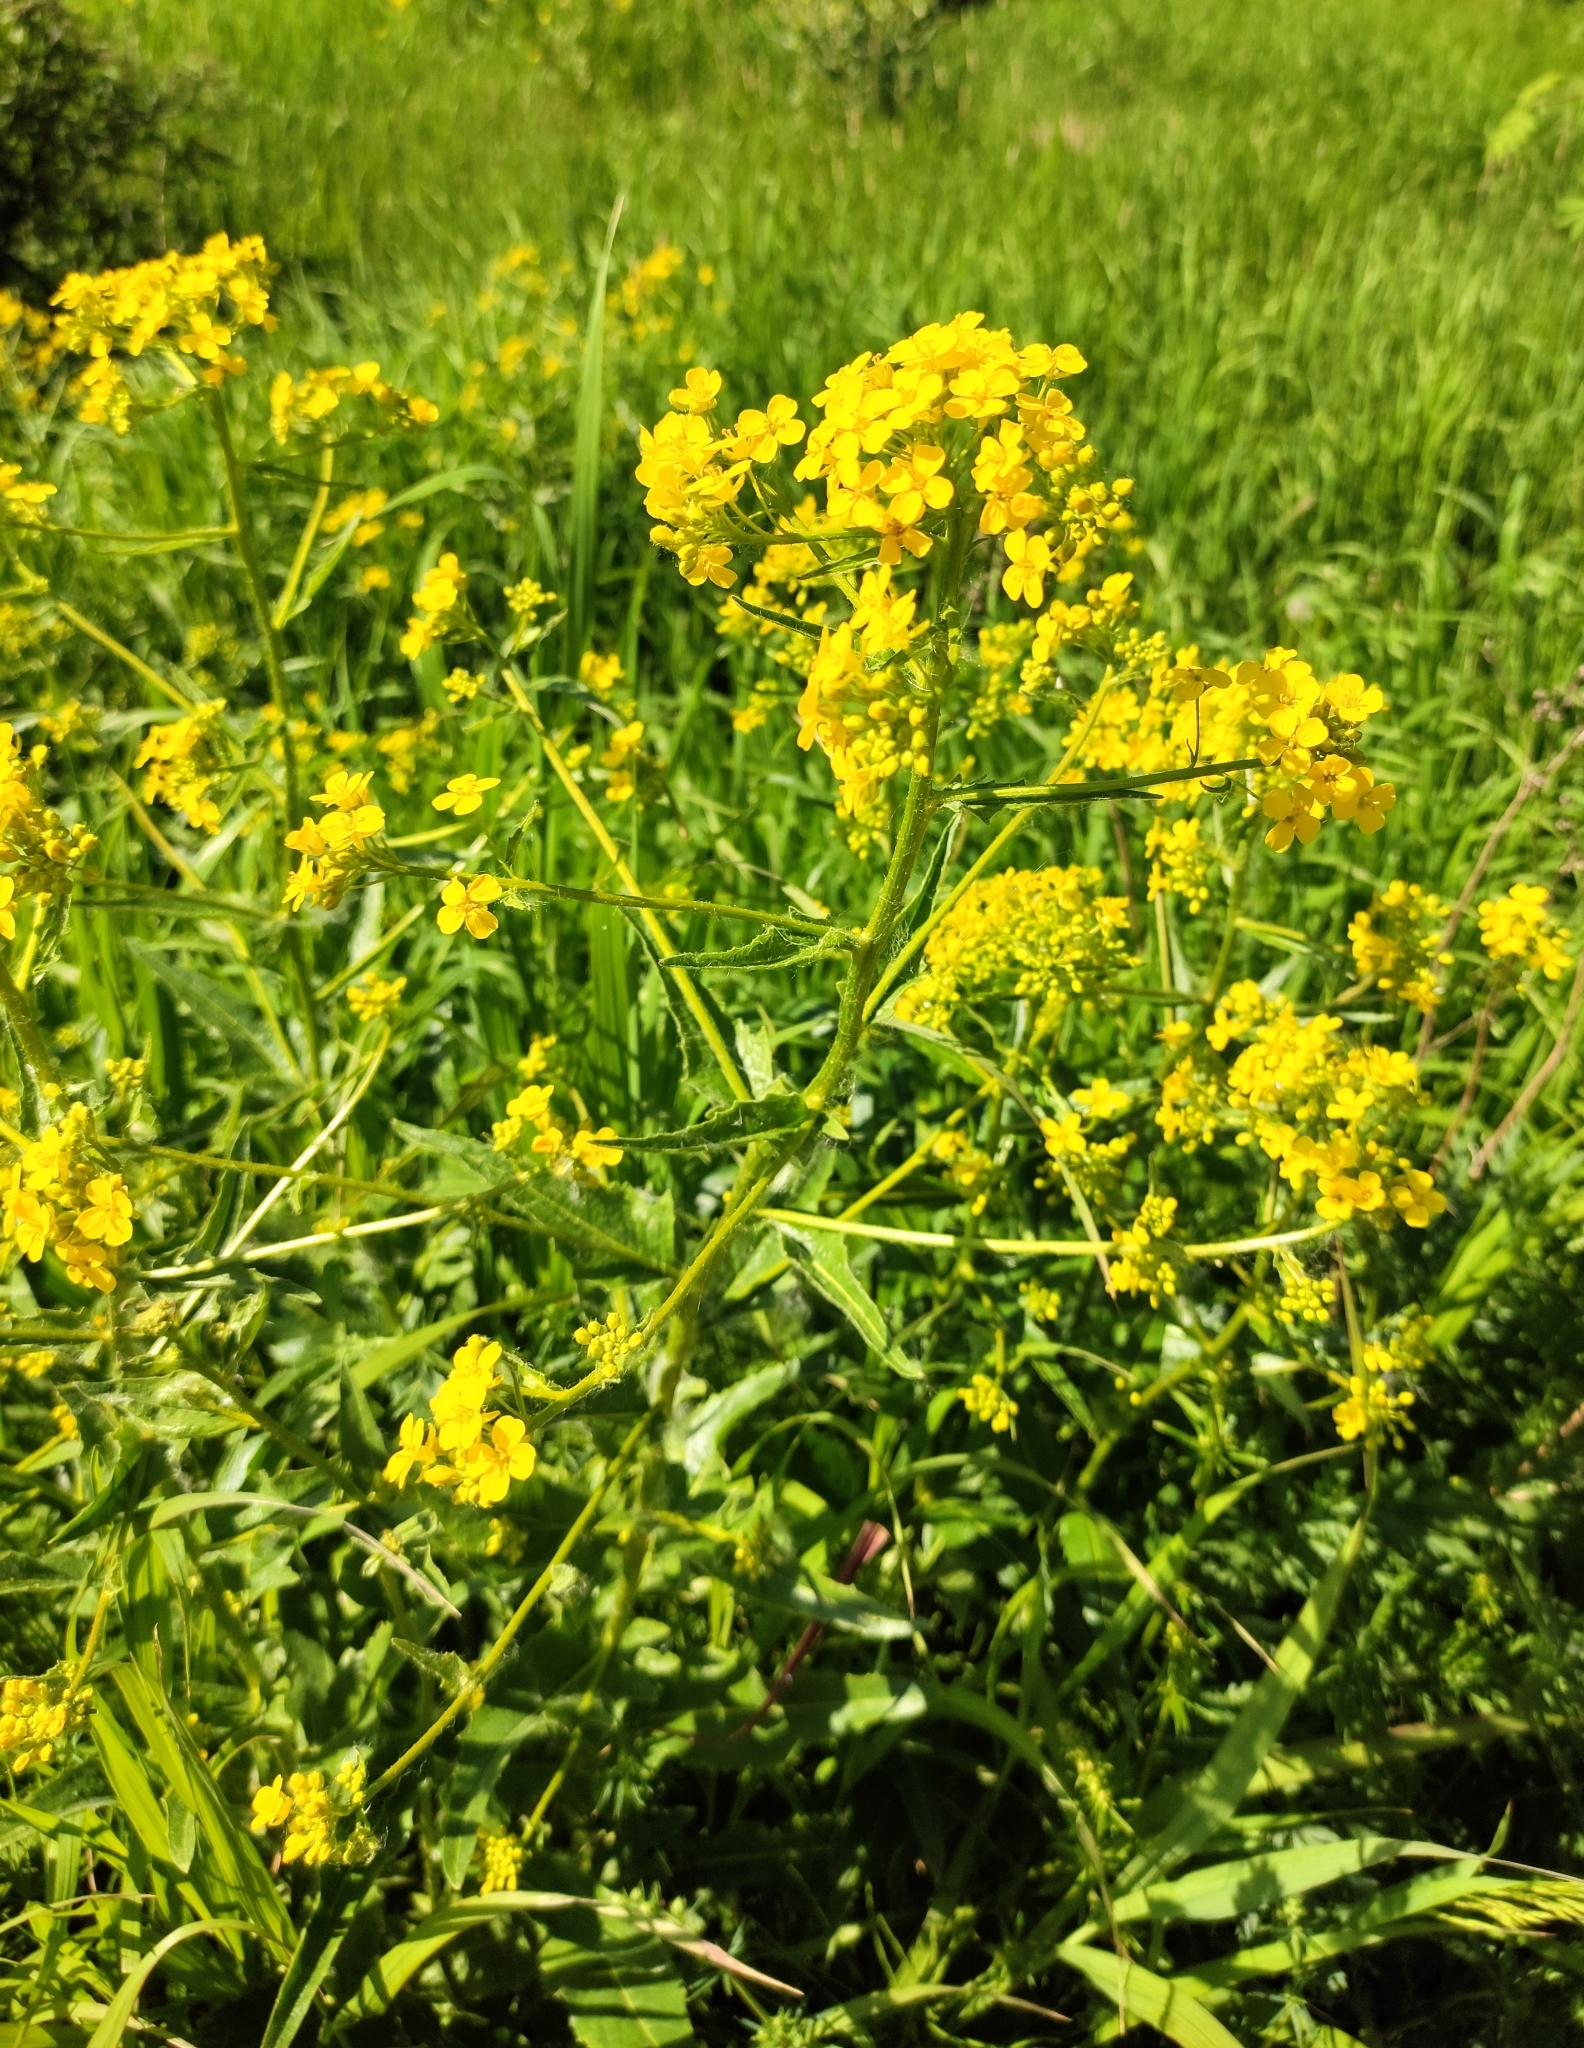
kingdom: Plantae
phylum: Tracheophyta
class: Magnoliopsida
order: Brassicales
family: Brassicaceae
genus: Bunias
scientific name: Bunias orientalis
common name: Warty-cabbage
